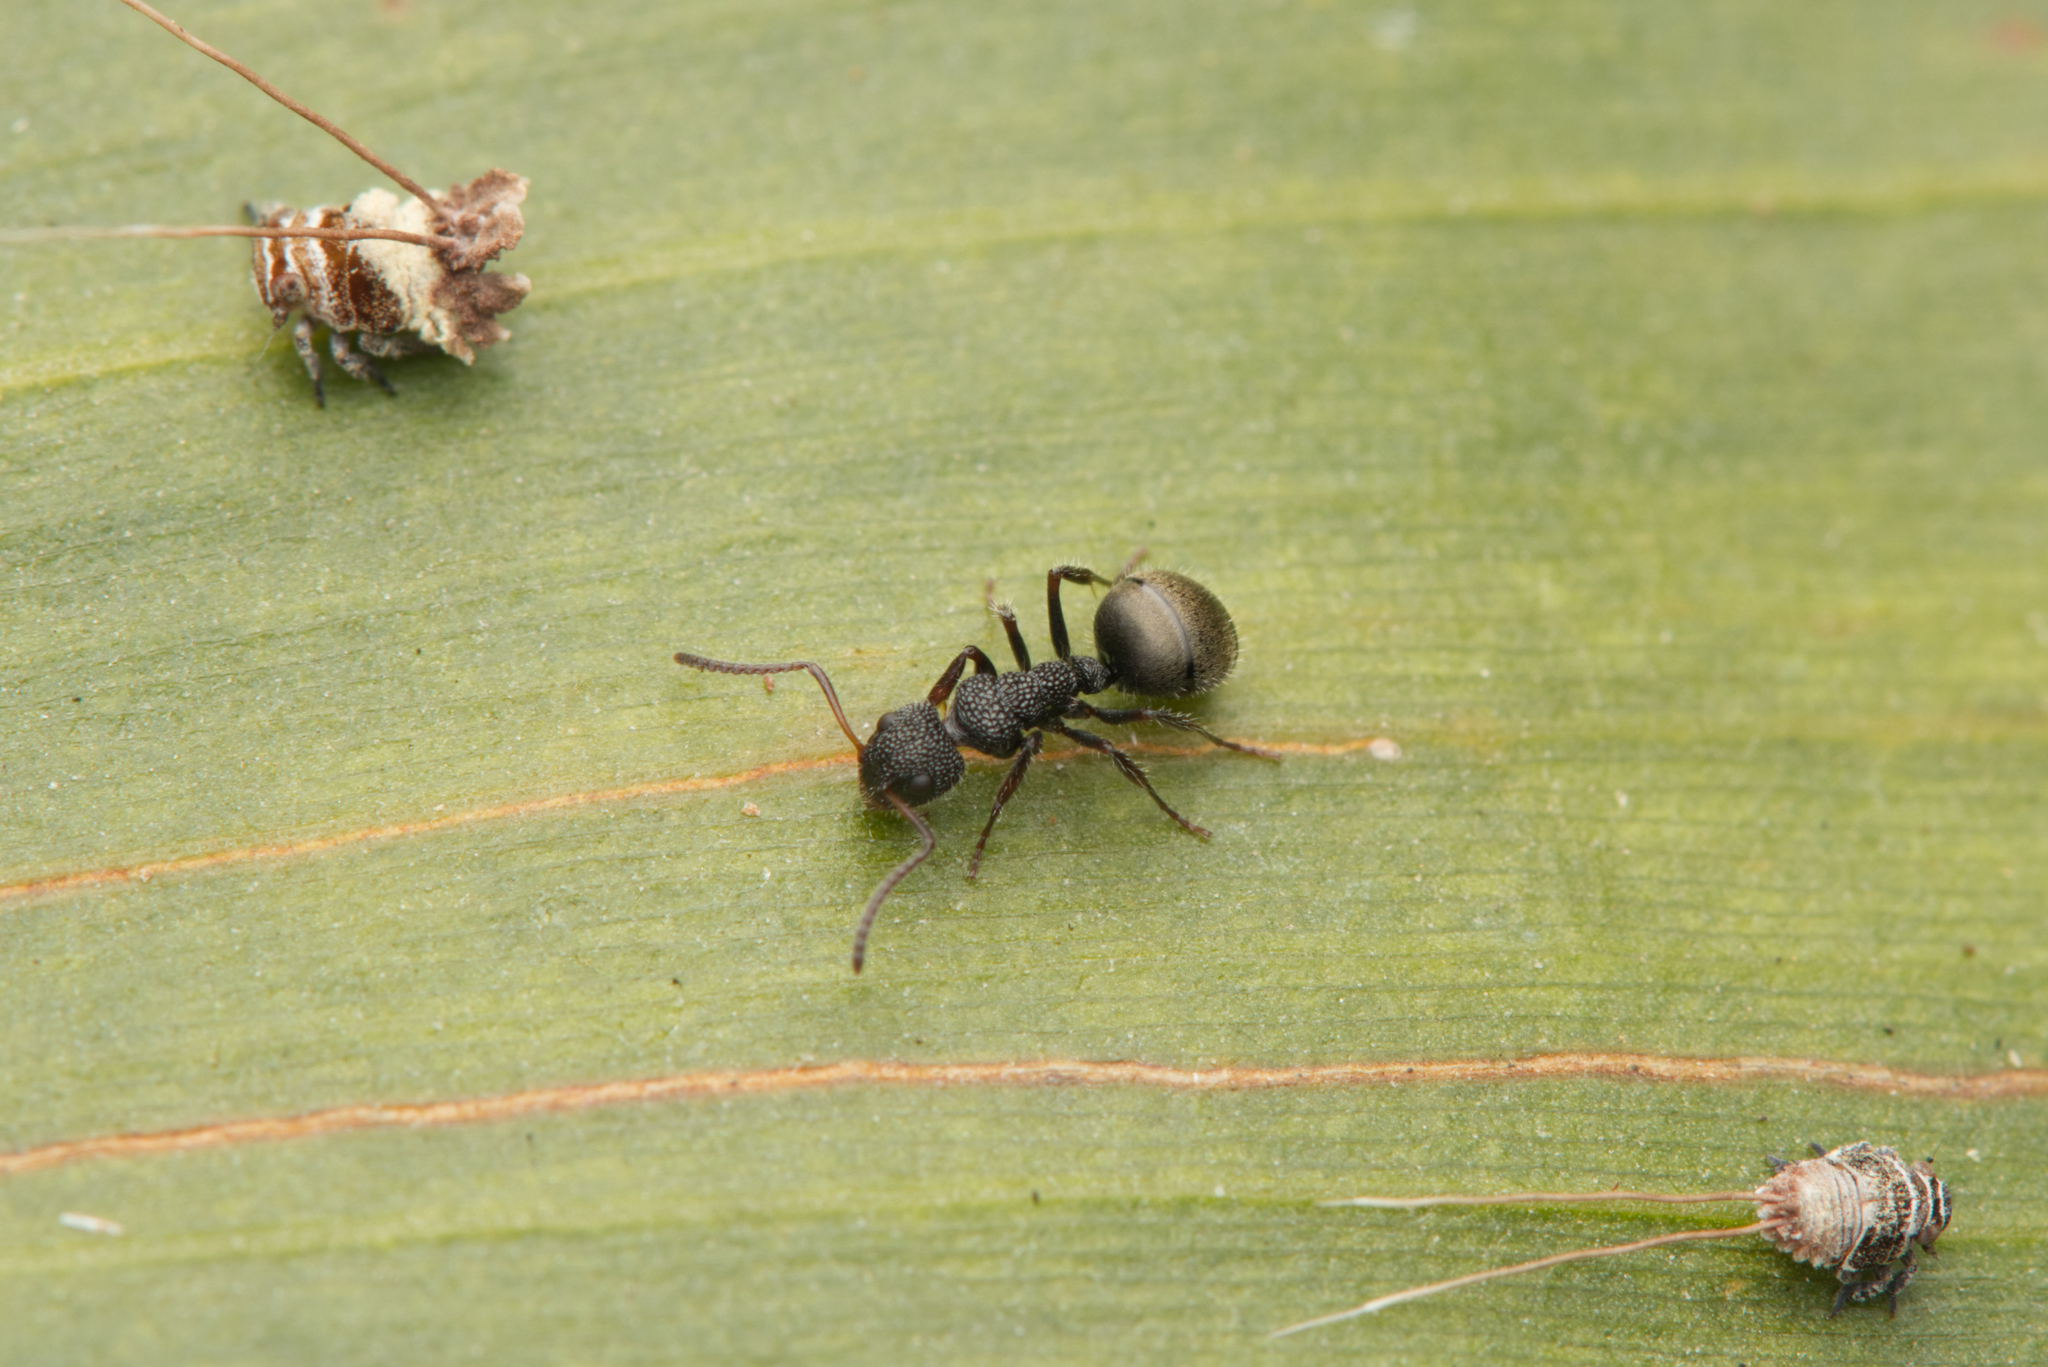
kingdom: Animalia
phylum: Arthropoda
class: Insecta
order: Hymenoptera
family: Formicidae
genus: Dolichoderus
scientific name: Dolichoderus scrobiculatus
